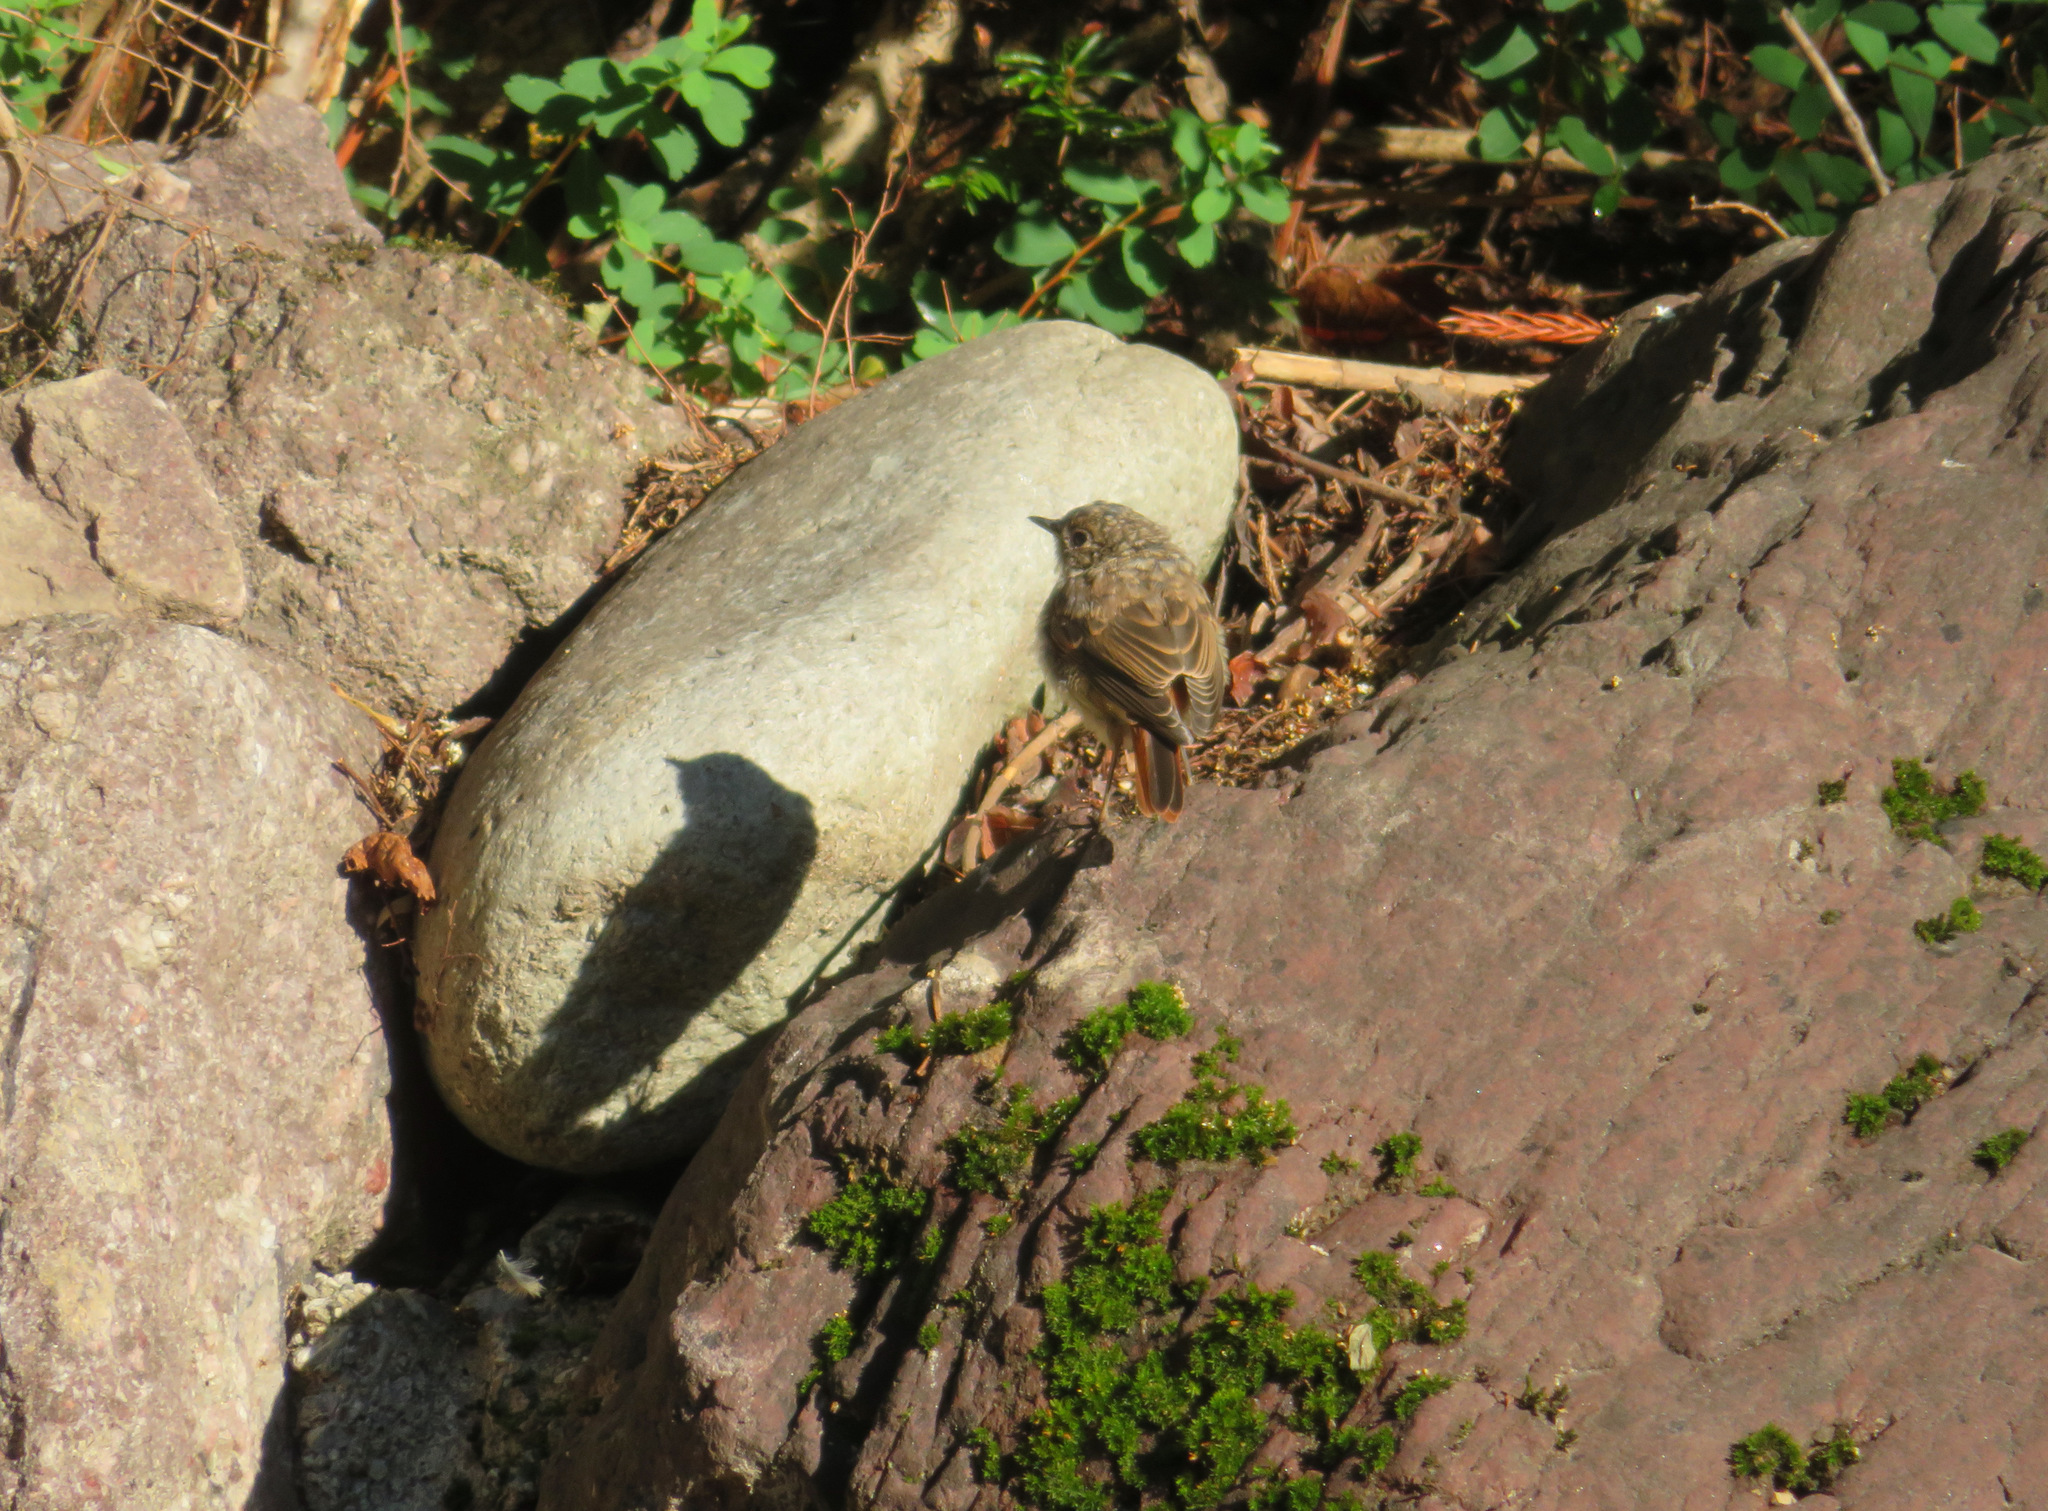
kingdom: Animalia
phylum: Chordata
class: Aves
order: Passeriformes
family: Muscicapidae
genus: Phoenicurus
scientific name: Phoenicurus ochruros
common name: Black redstart
